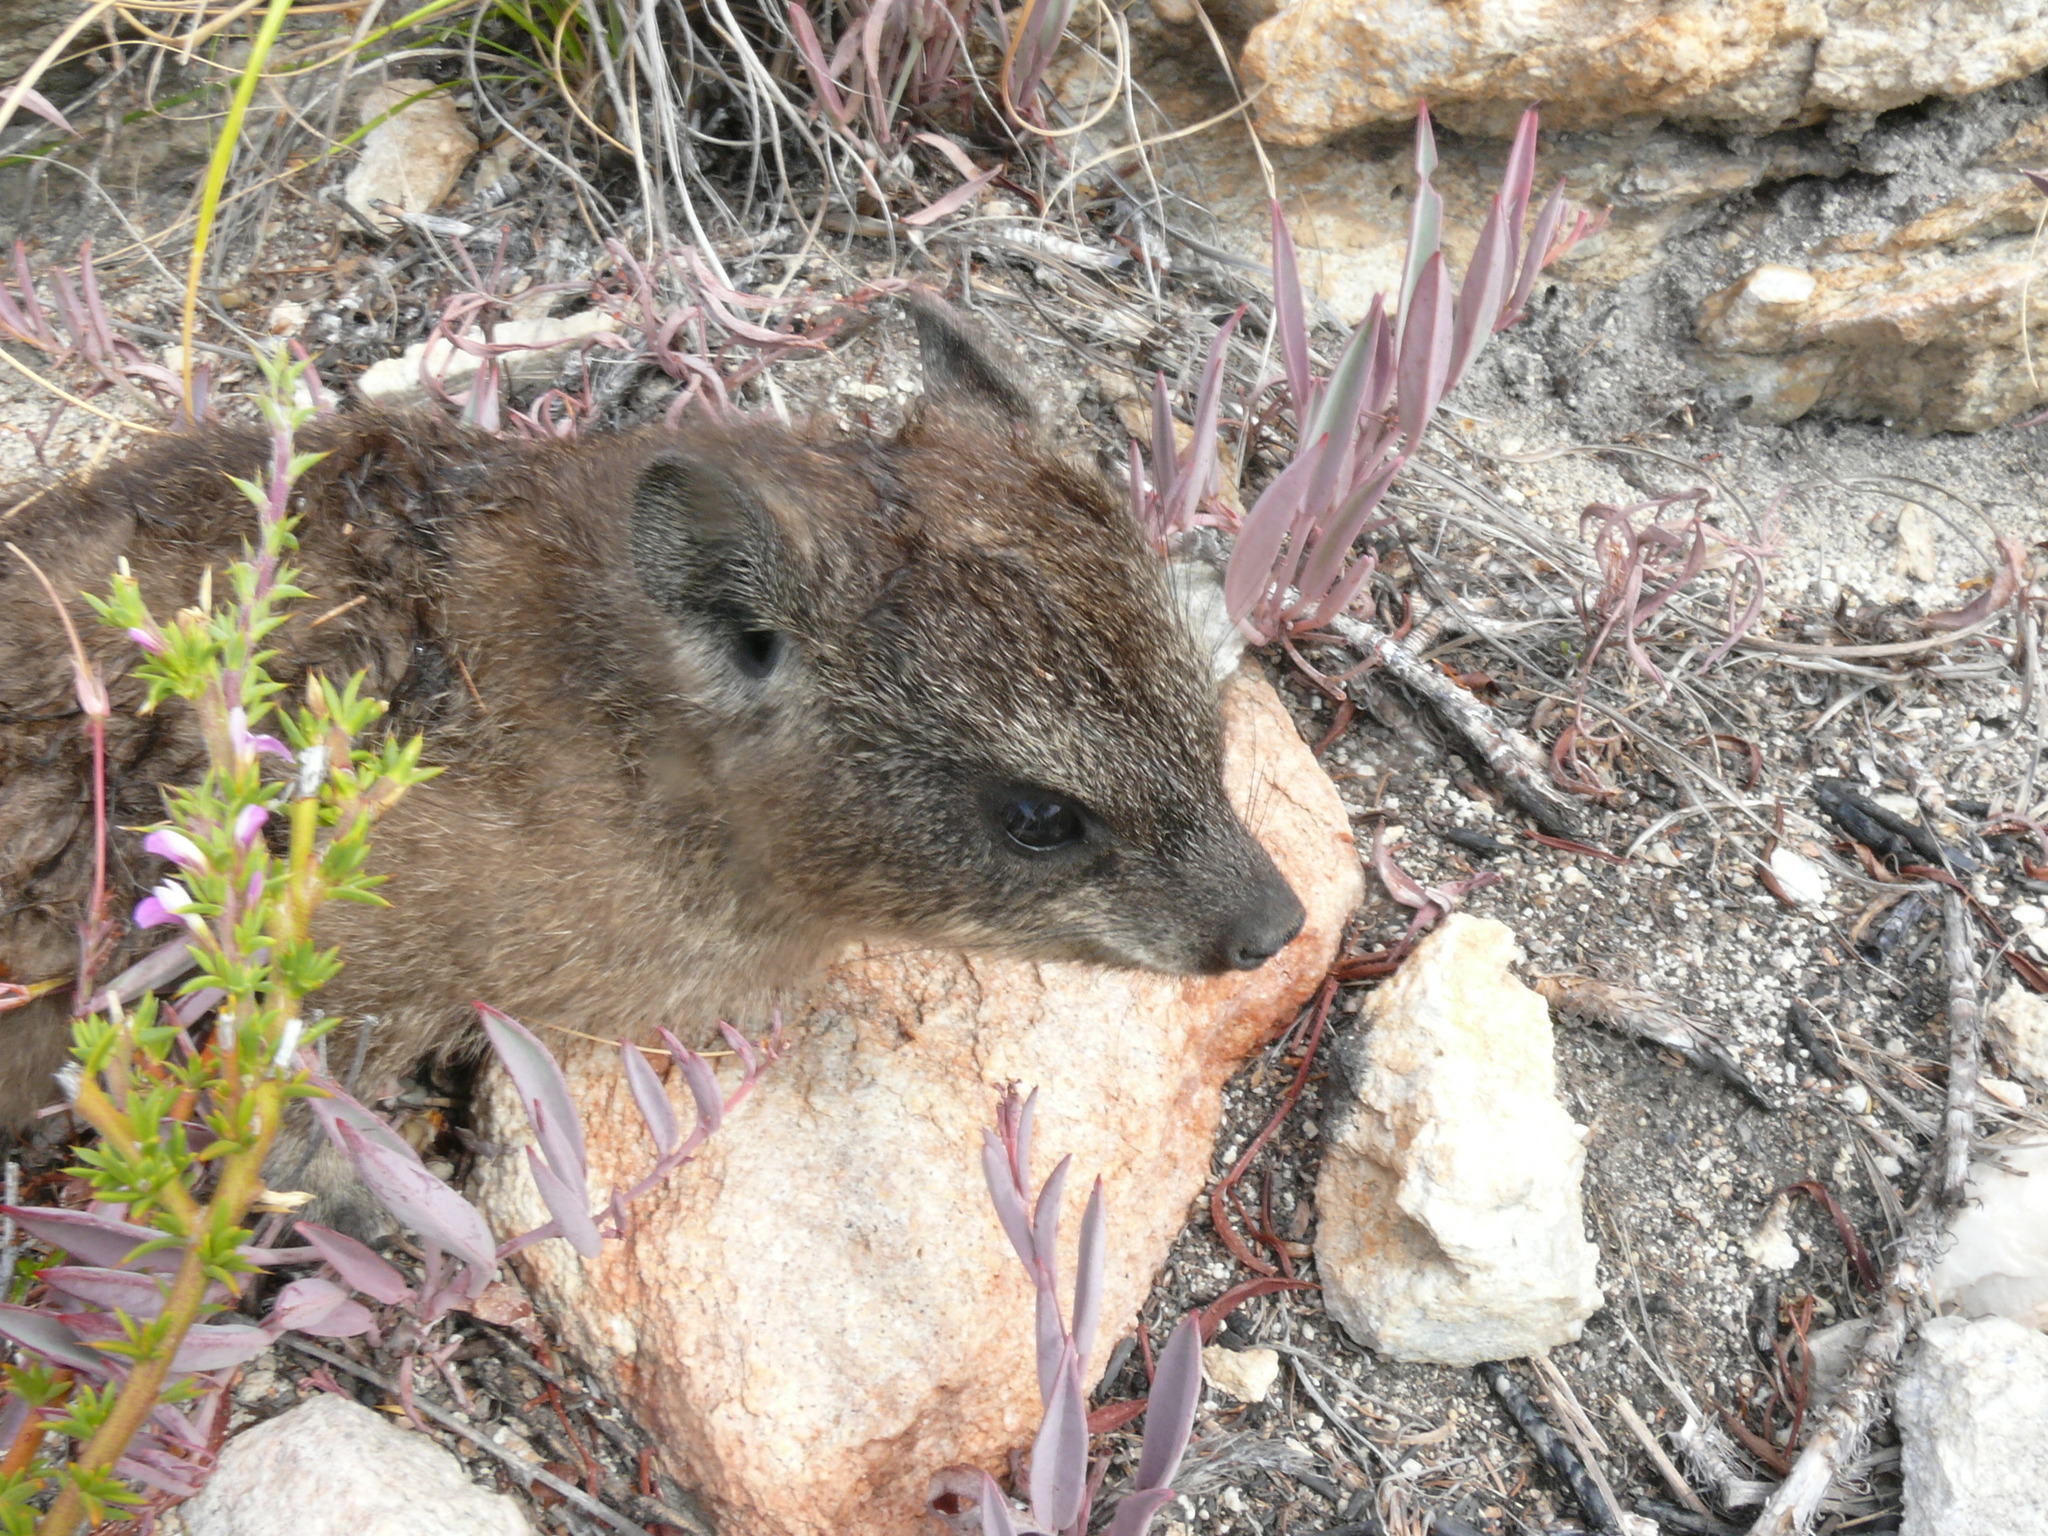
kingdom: Animalia
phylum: Chordata
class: Mammalia
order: Hyracoidea
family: Procaviidae
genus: Procavia
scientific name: Procavia capensis
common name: Rock hyrax
